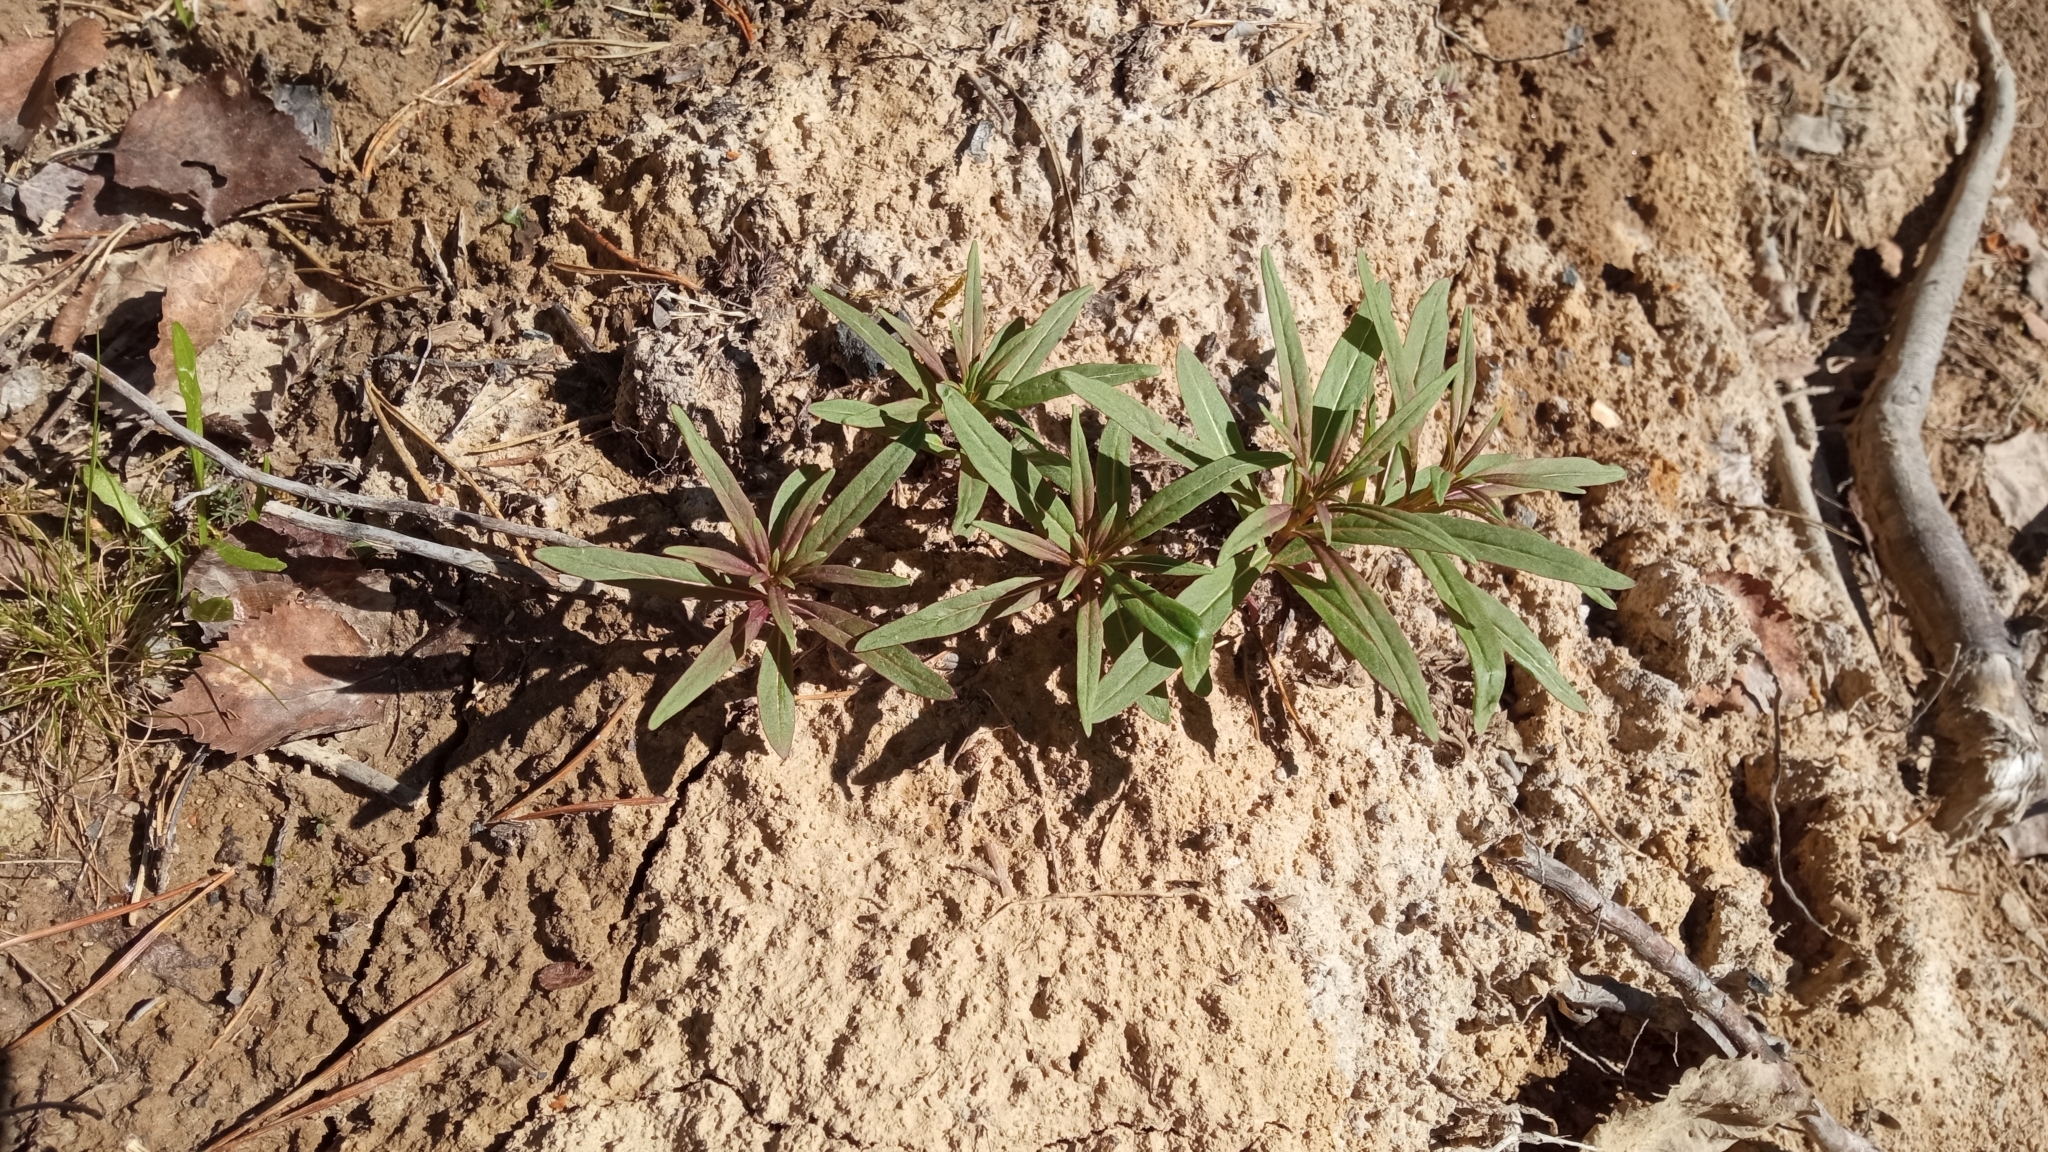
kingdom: Plantae
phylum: Tracheophyta
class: Magnoliopsida
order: Myrtales
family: Onagraceae
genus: Chamaenerion
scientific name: Chamaenerion angustifolium
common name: Fireweed
